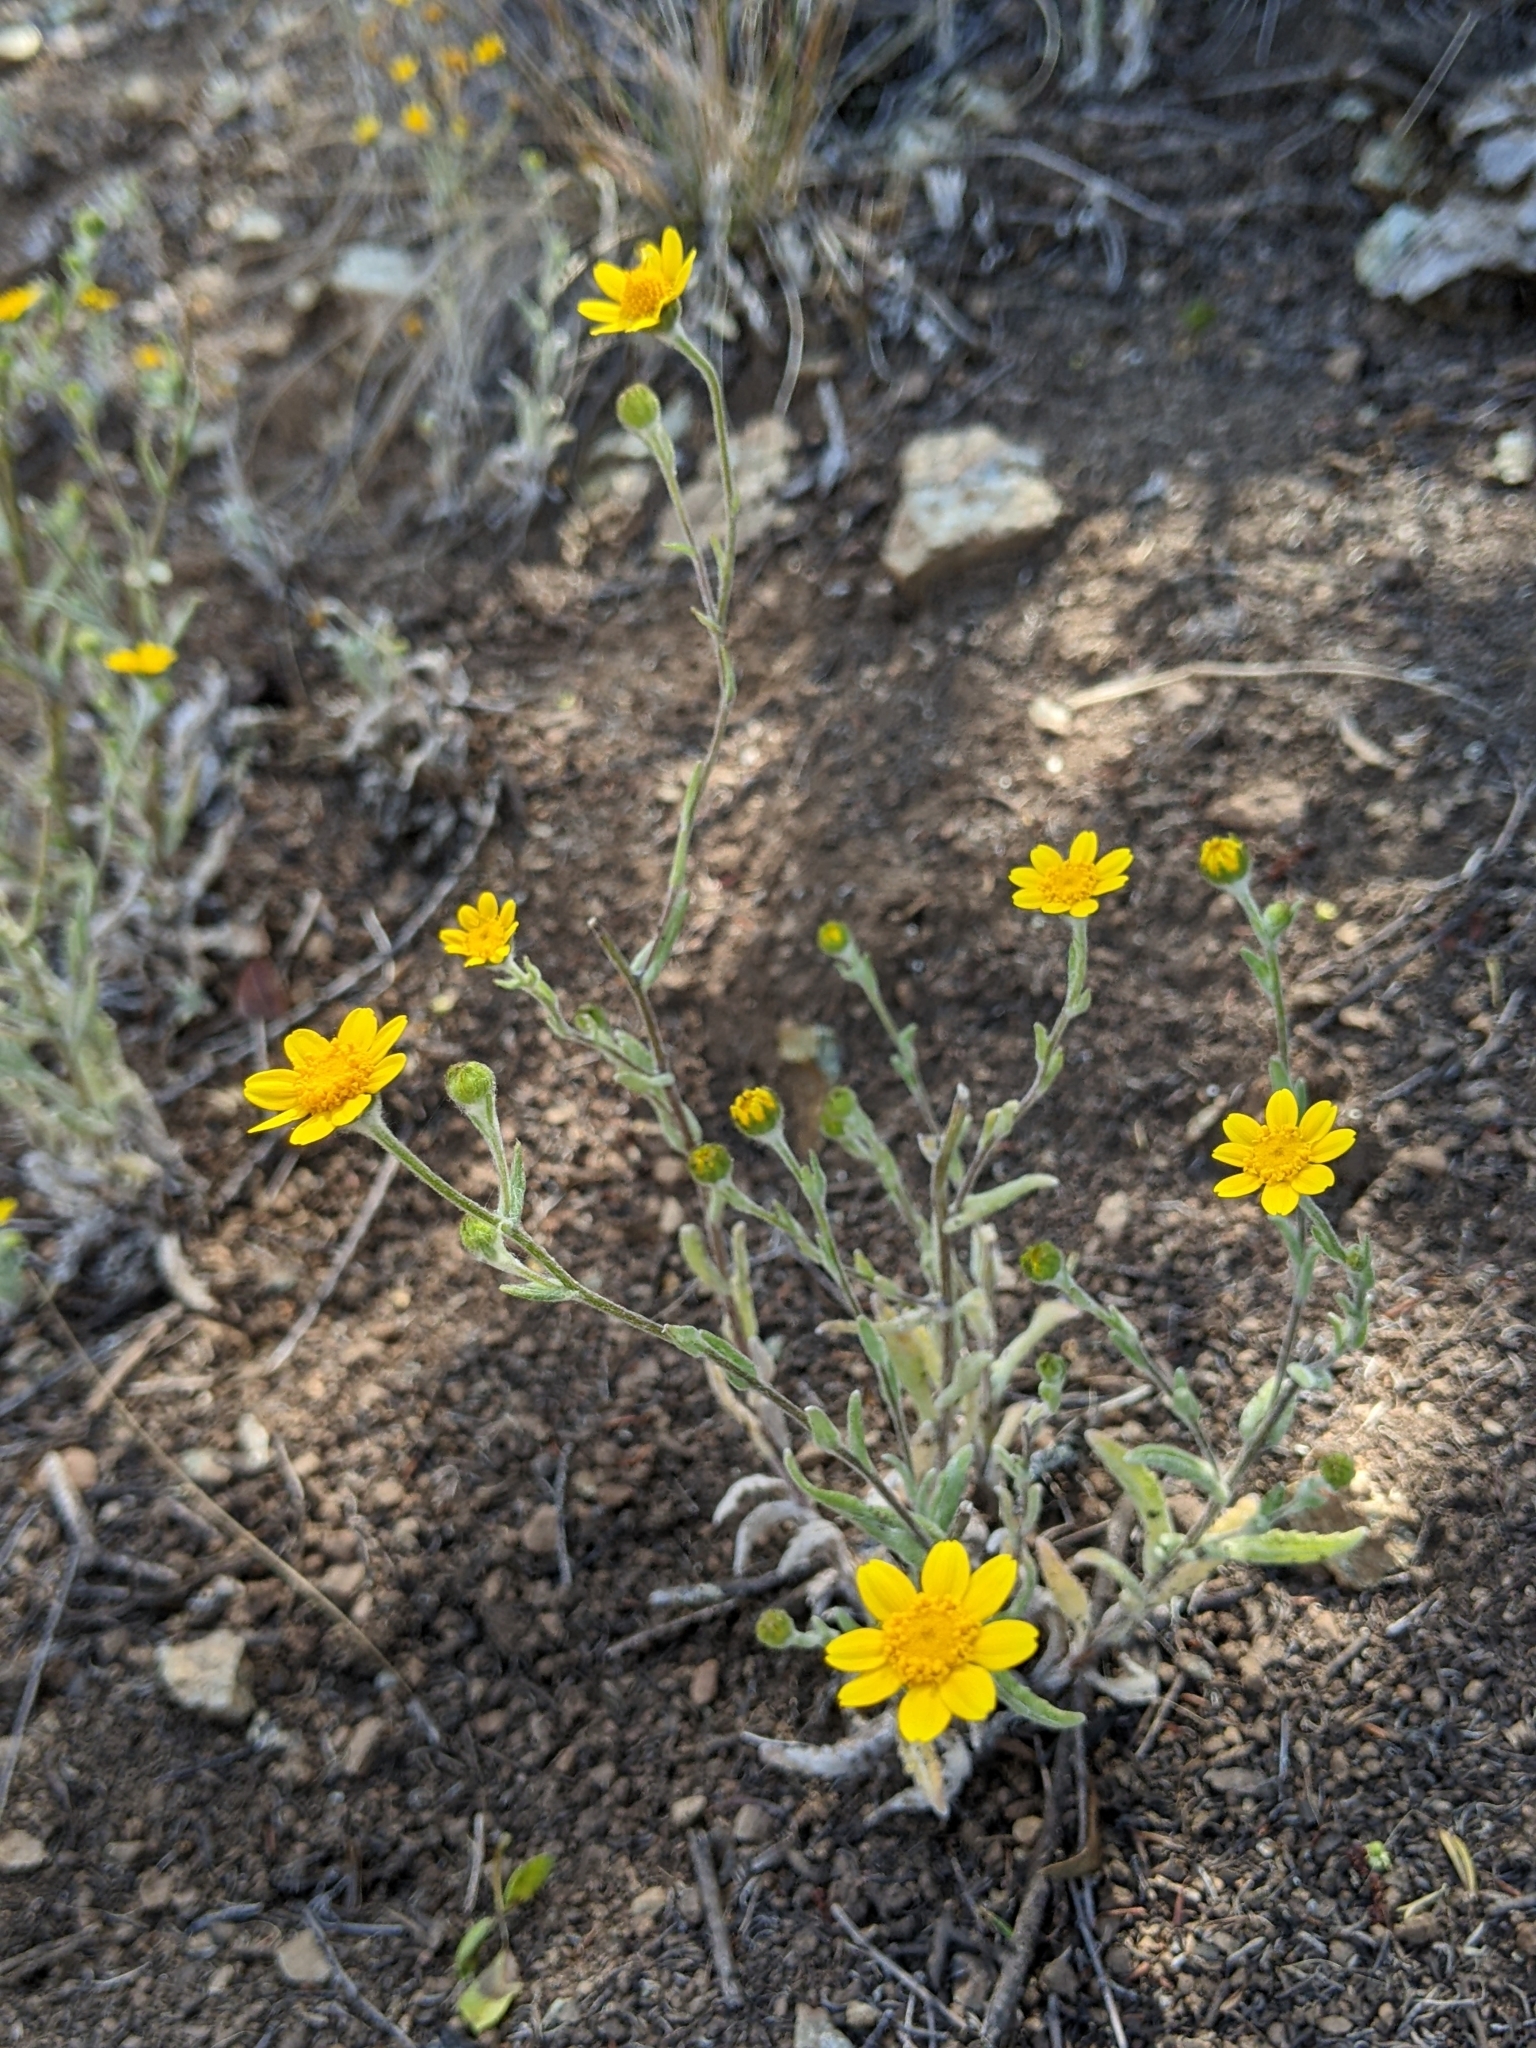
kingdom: Plantae
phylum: Tracheophyta
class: Magnoliopsida
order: Asterales
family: Asteraceae
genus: Monolopia
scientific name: Monolopia gracilens
